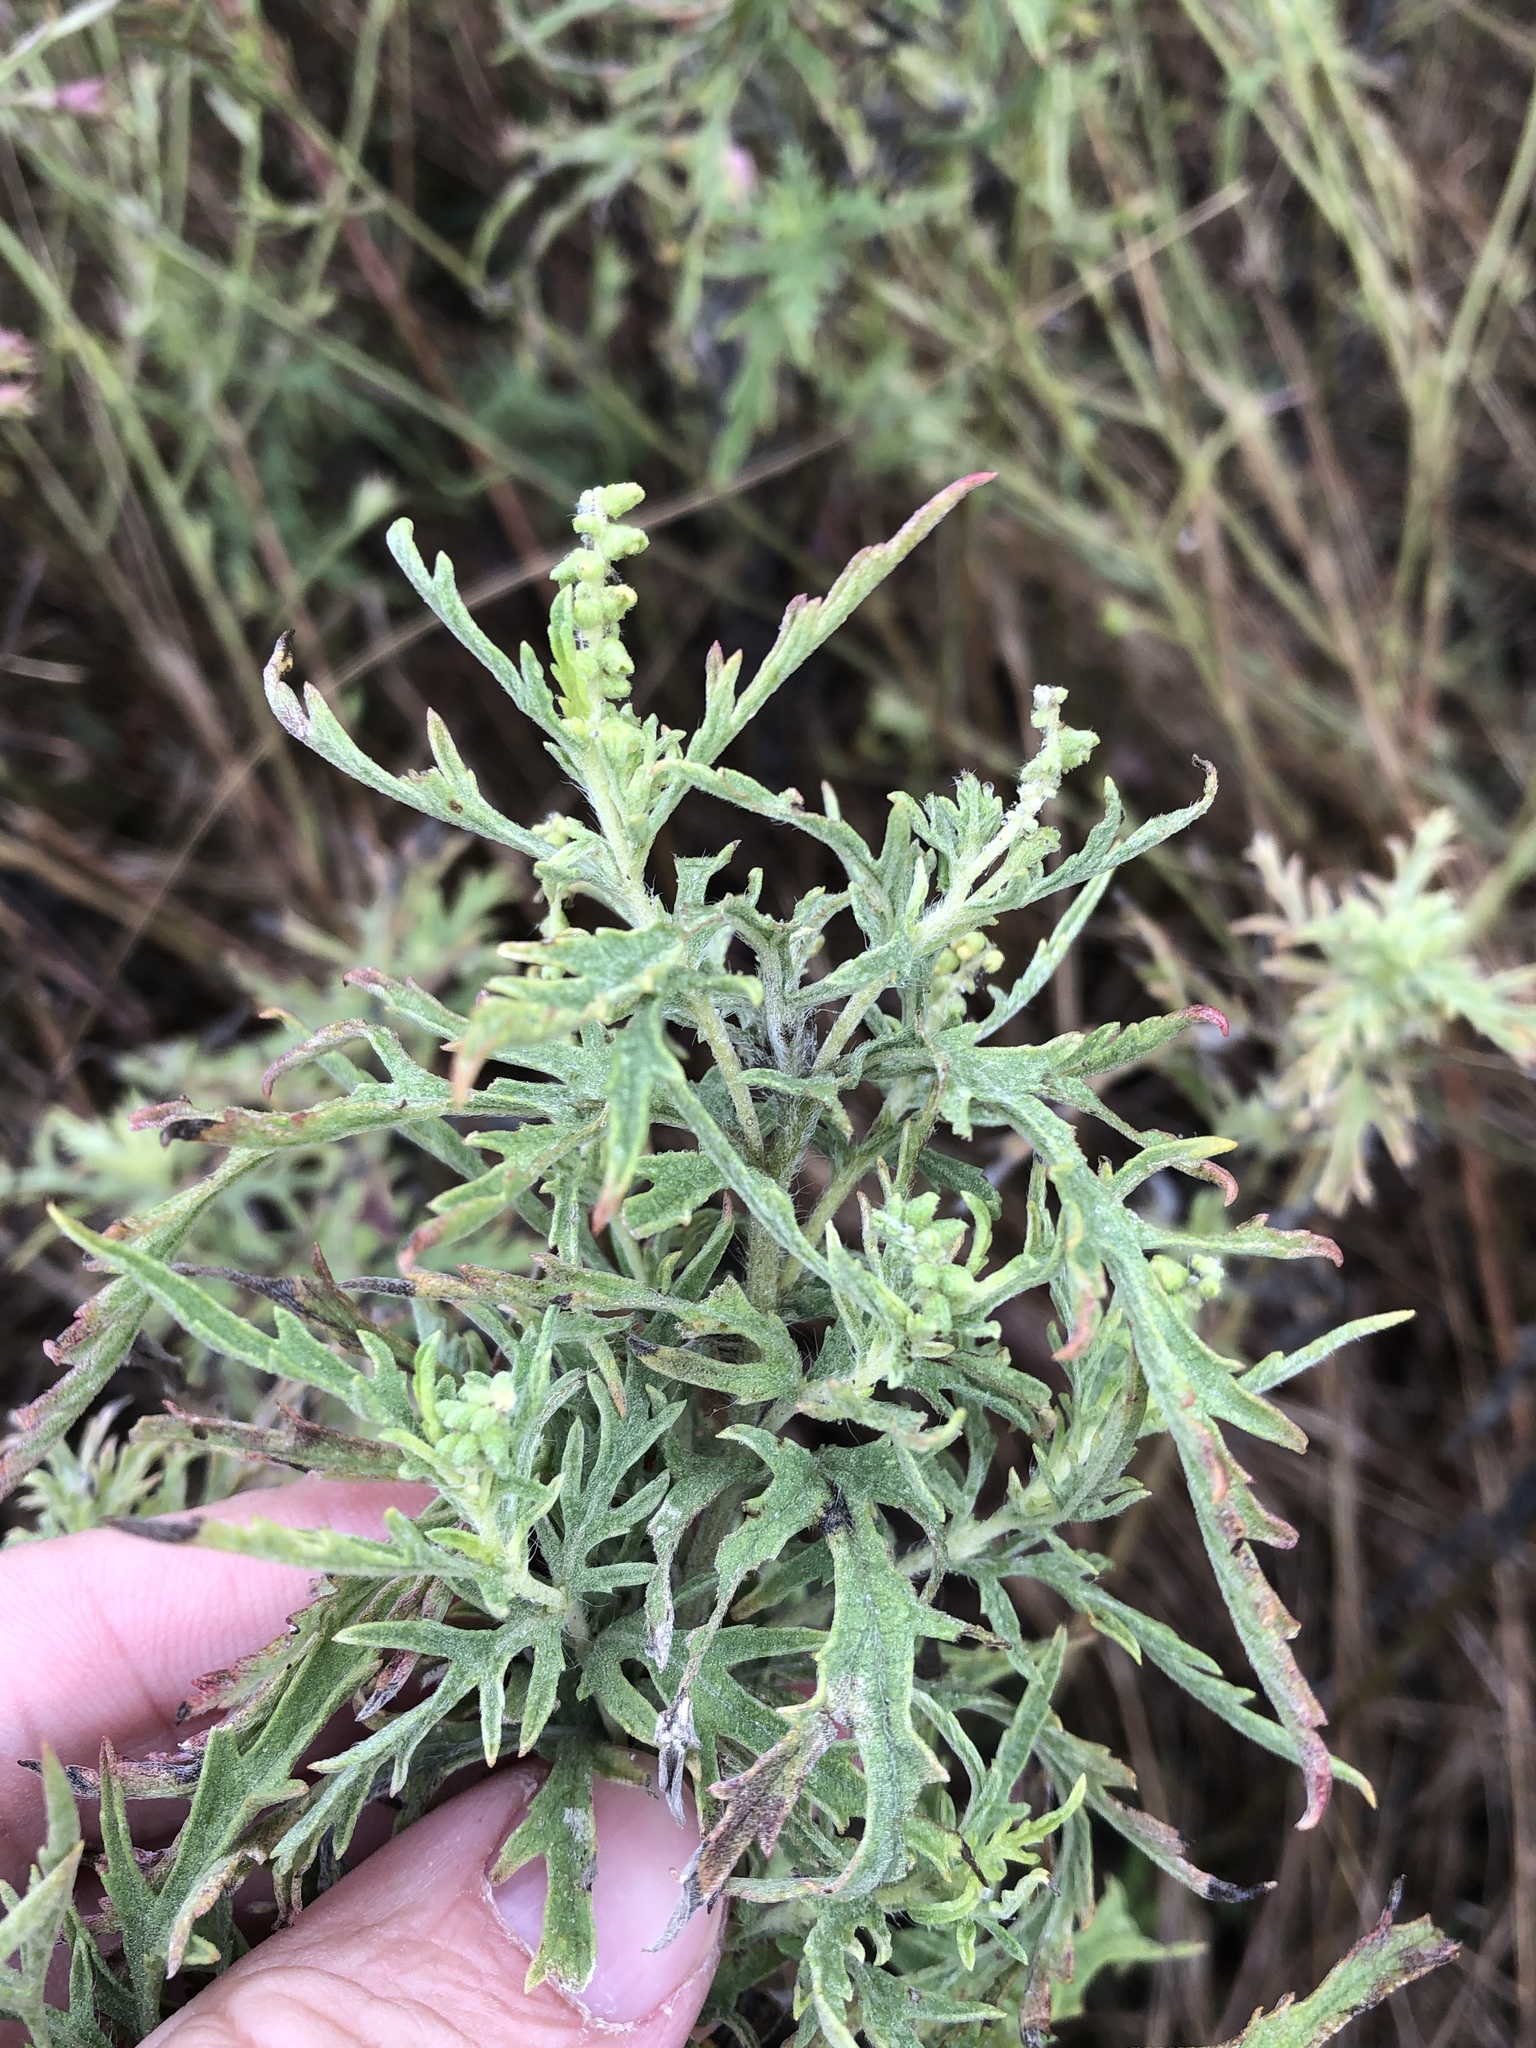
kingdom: Plantae
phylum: Tracheophyta
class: Magnoliopsida
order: Asterales
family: Asteraceae
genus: Ambrosia
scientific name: Ambrosia psilostachya
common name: Perennial ragweed
